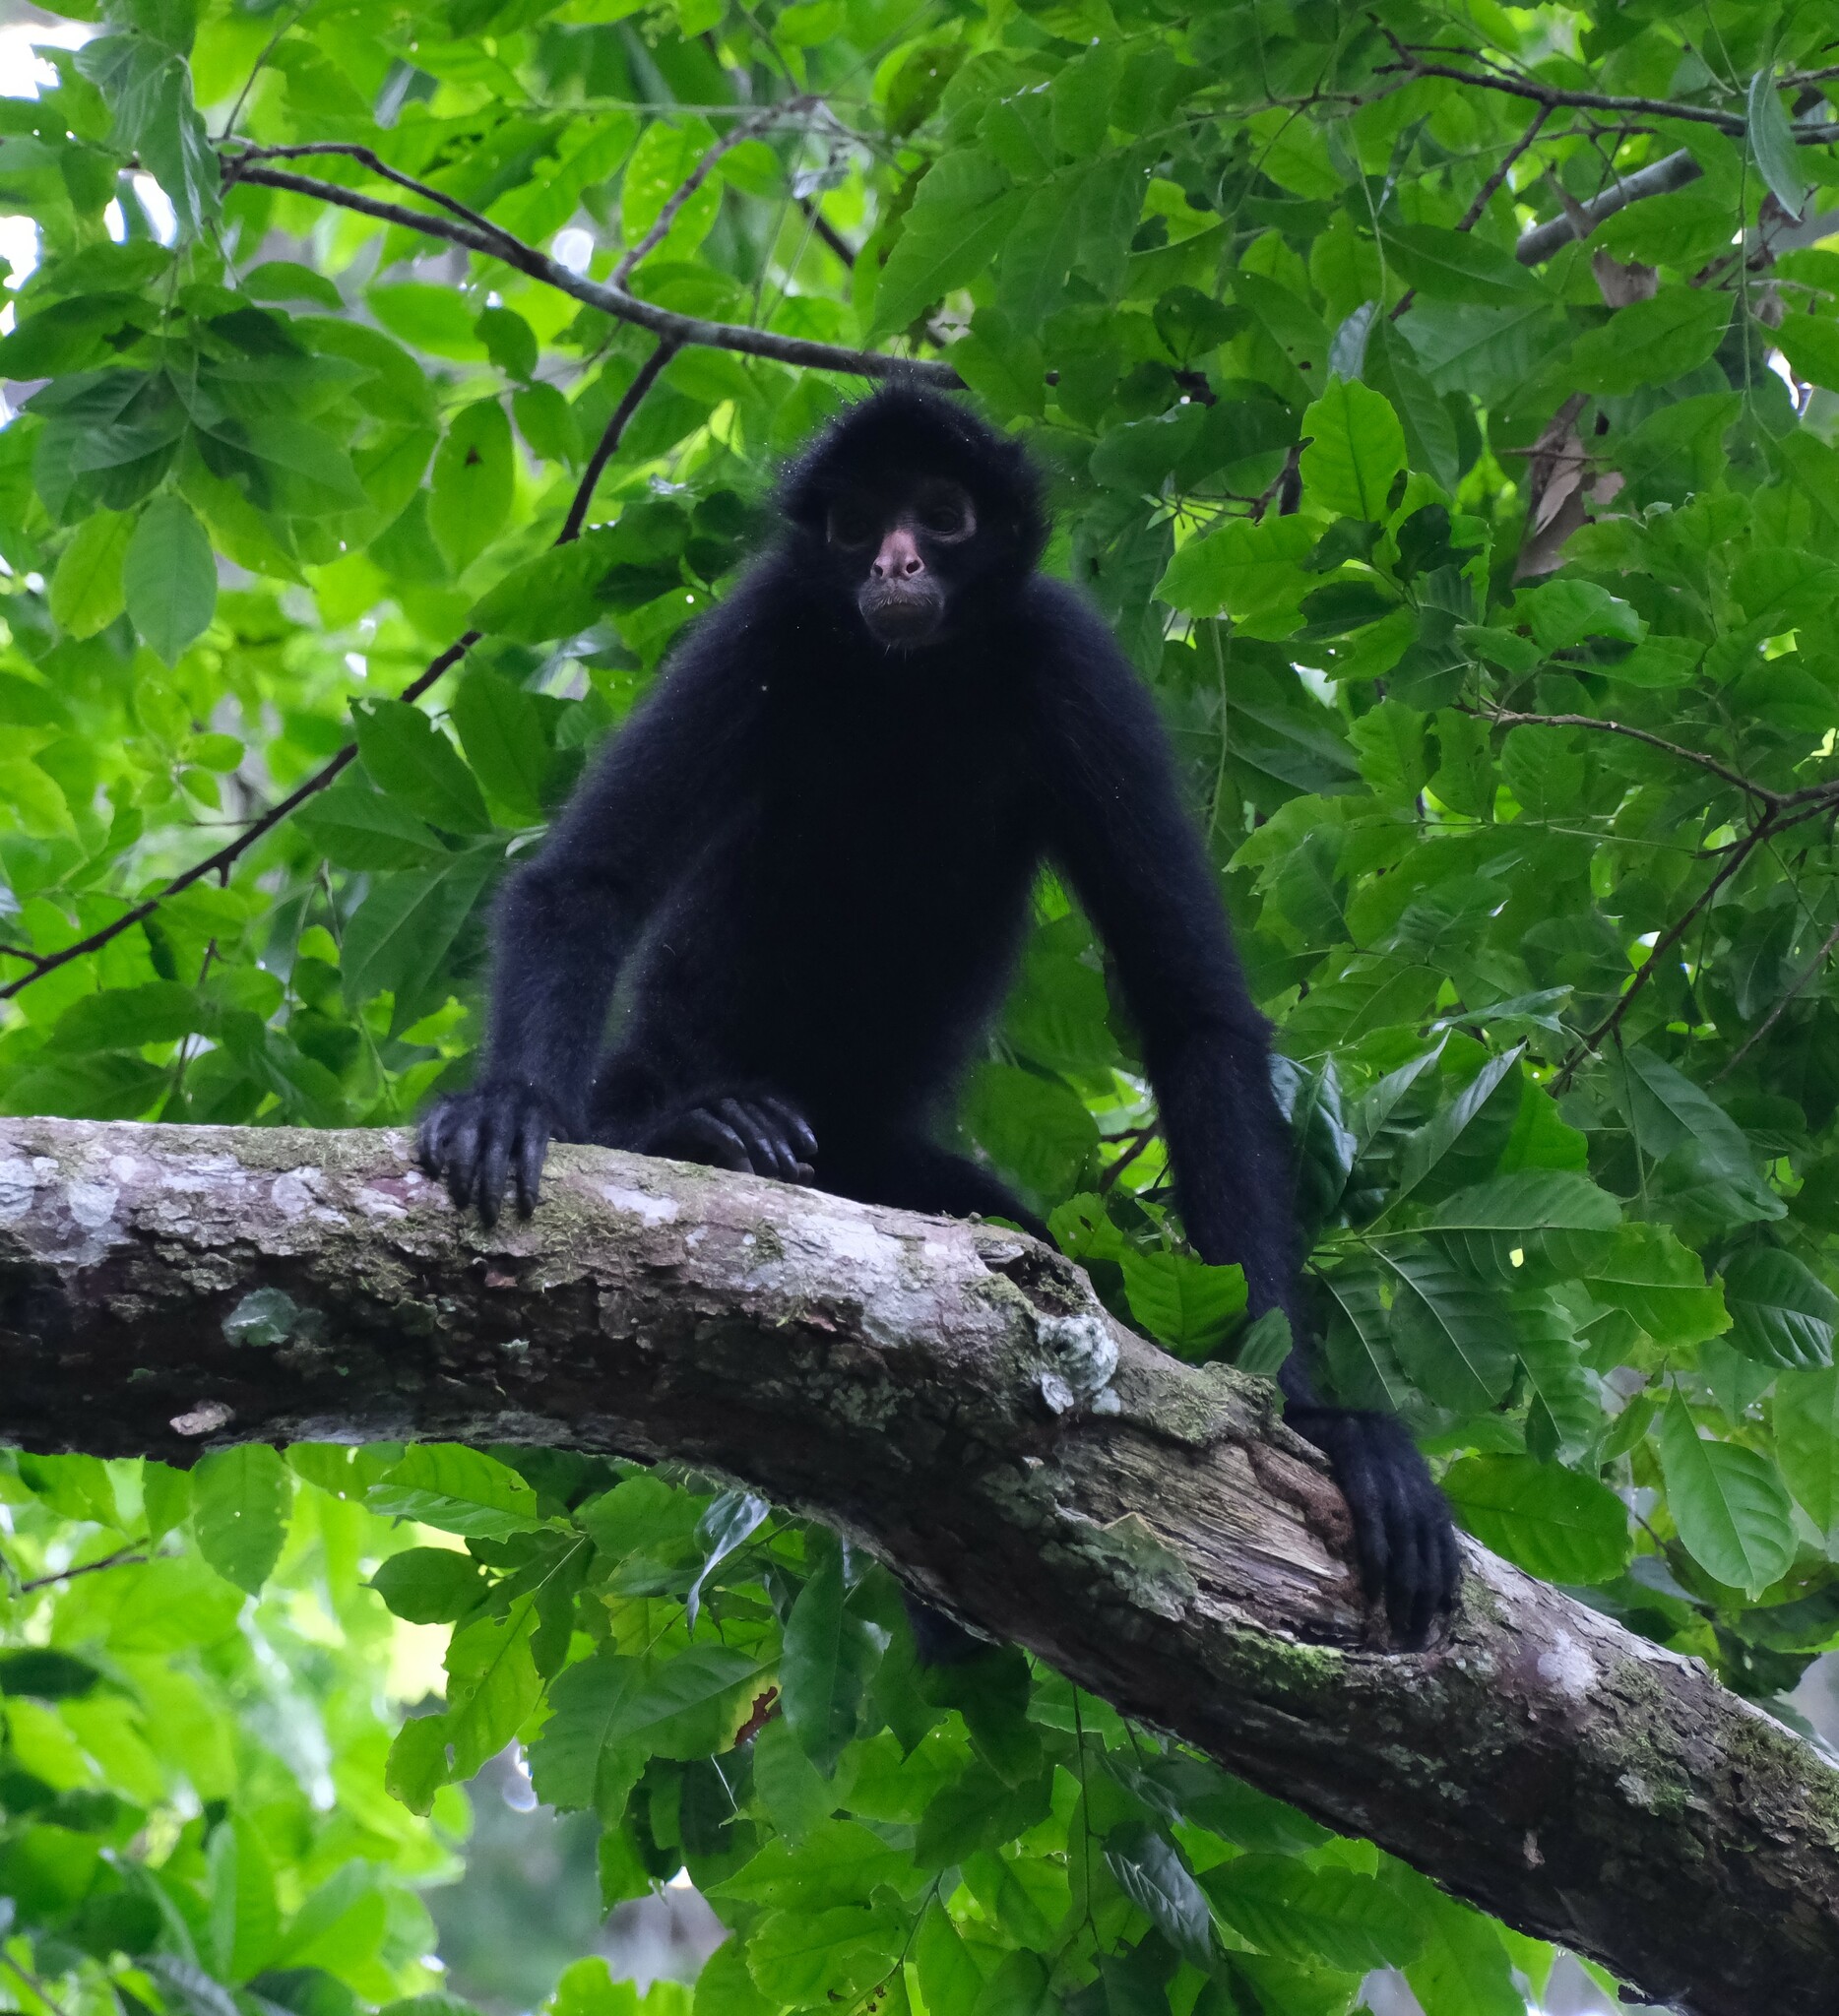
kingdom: Animalia
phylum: Chordata
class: Mammalia
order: Primates
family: Atelidae
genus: Ateles
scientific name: Ateles chamek
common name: Peruvian spider monkey
